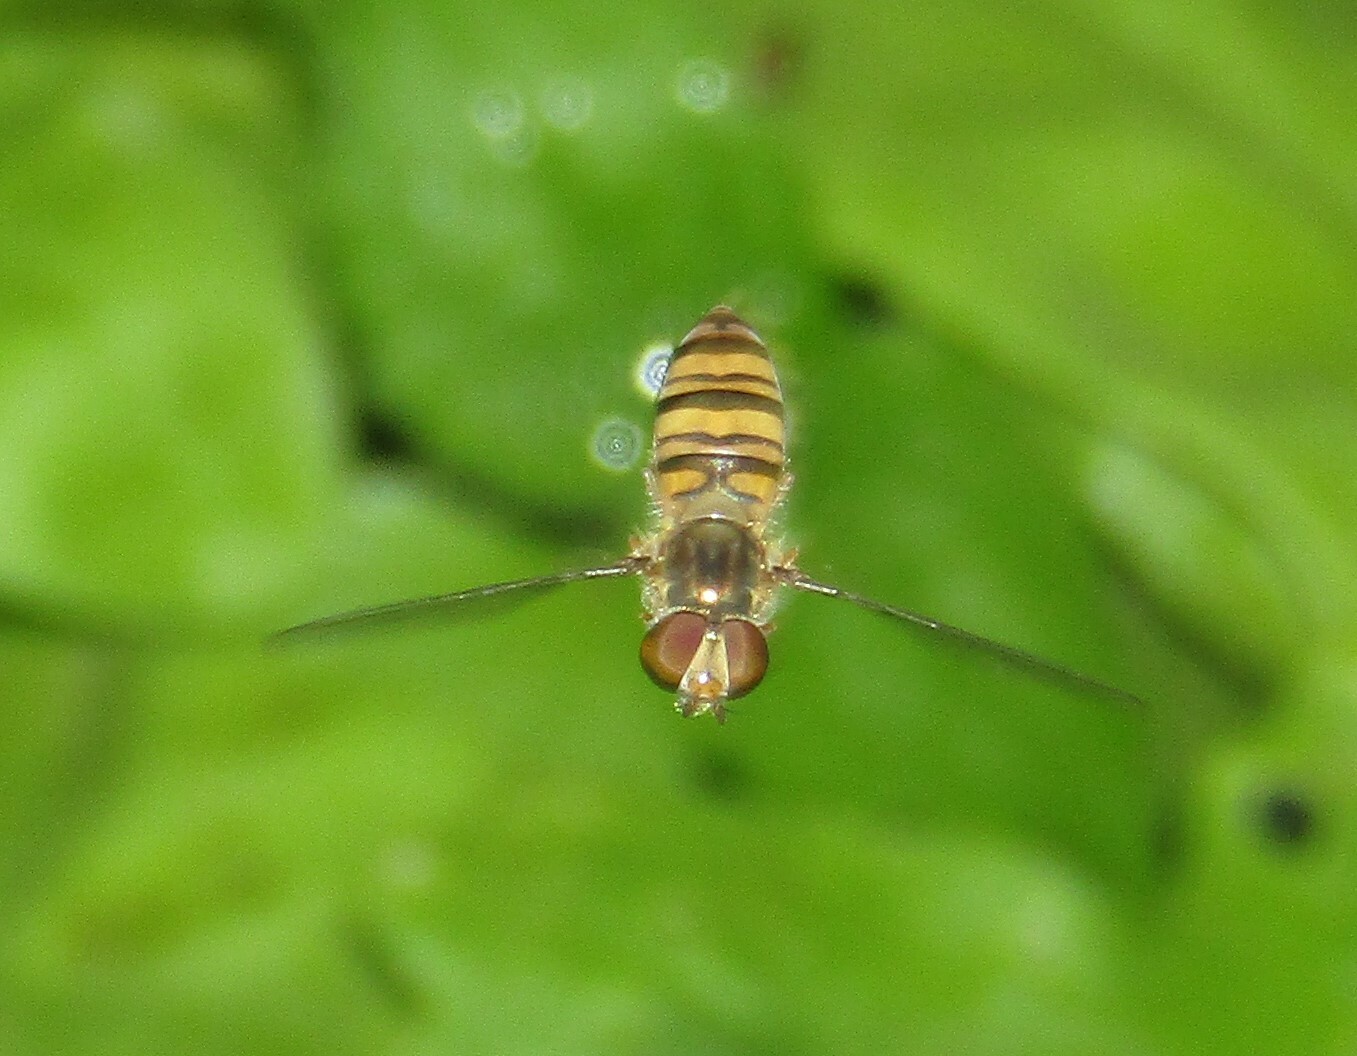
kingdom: Animalia
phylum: Arthropoda
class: Insecta
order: Diptera
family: Syrphidae
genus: Episyrphus
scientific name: Episyrphus balteatus
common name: Marmalade hoverfly
